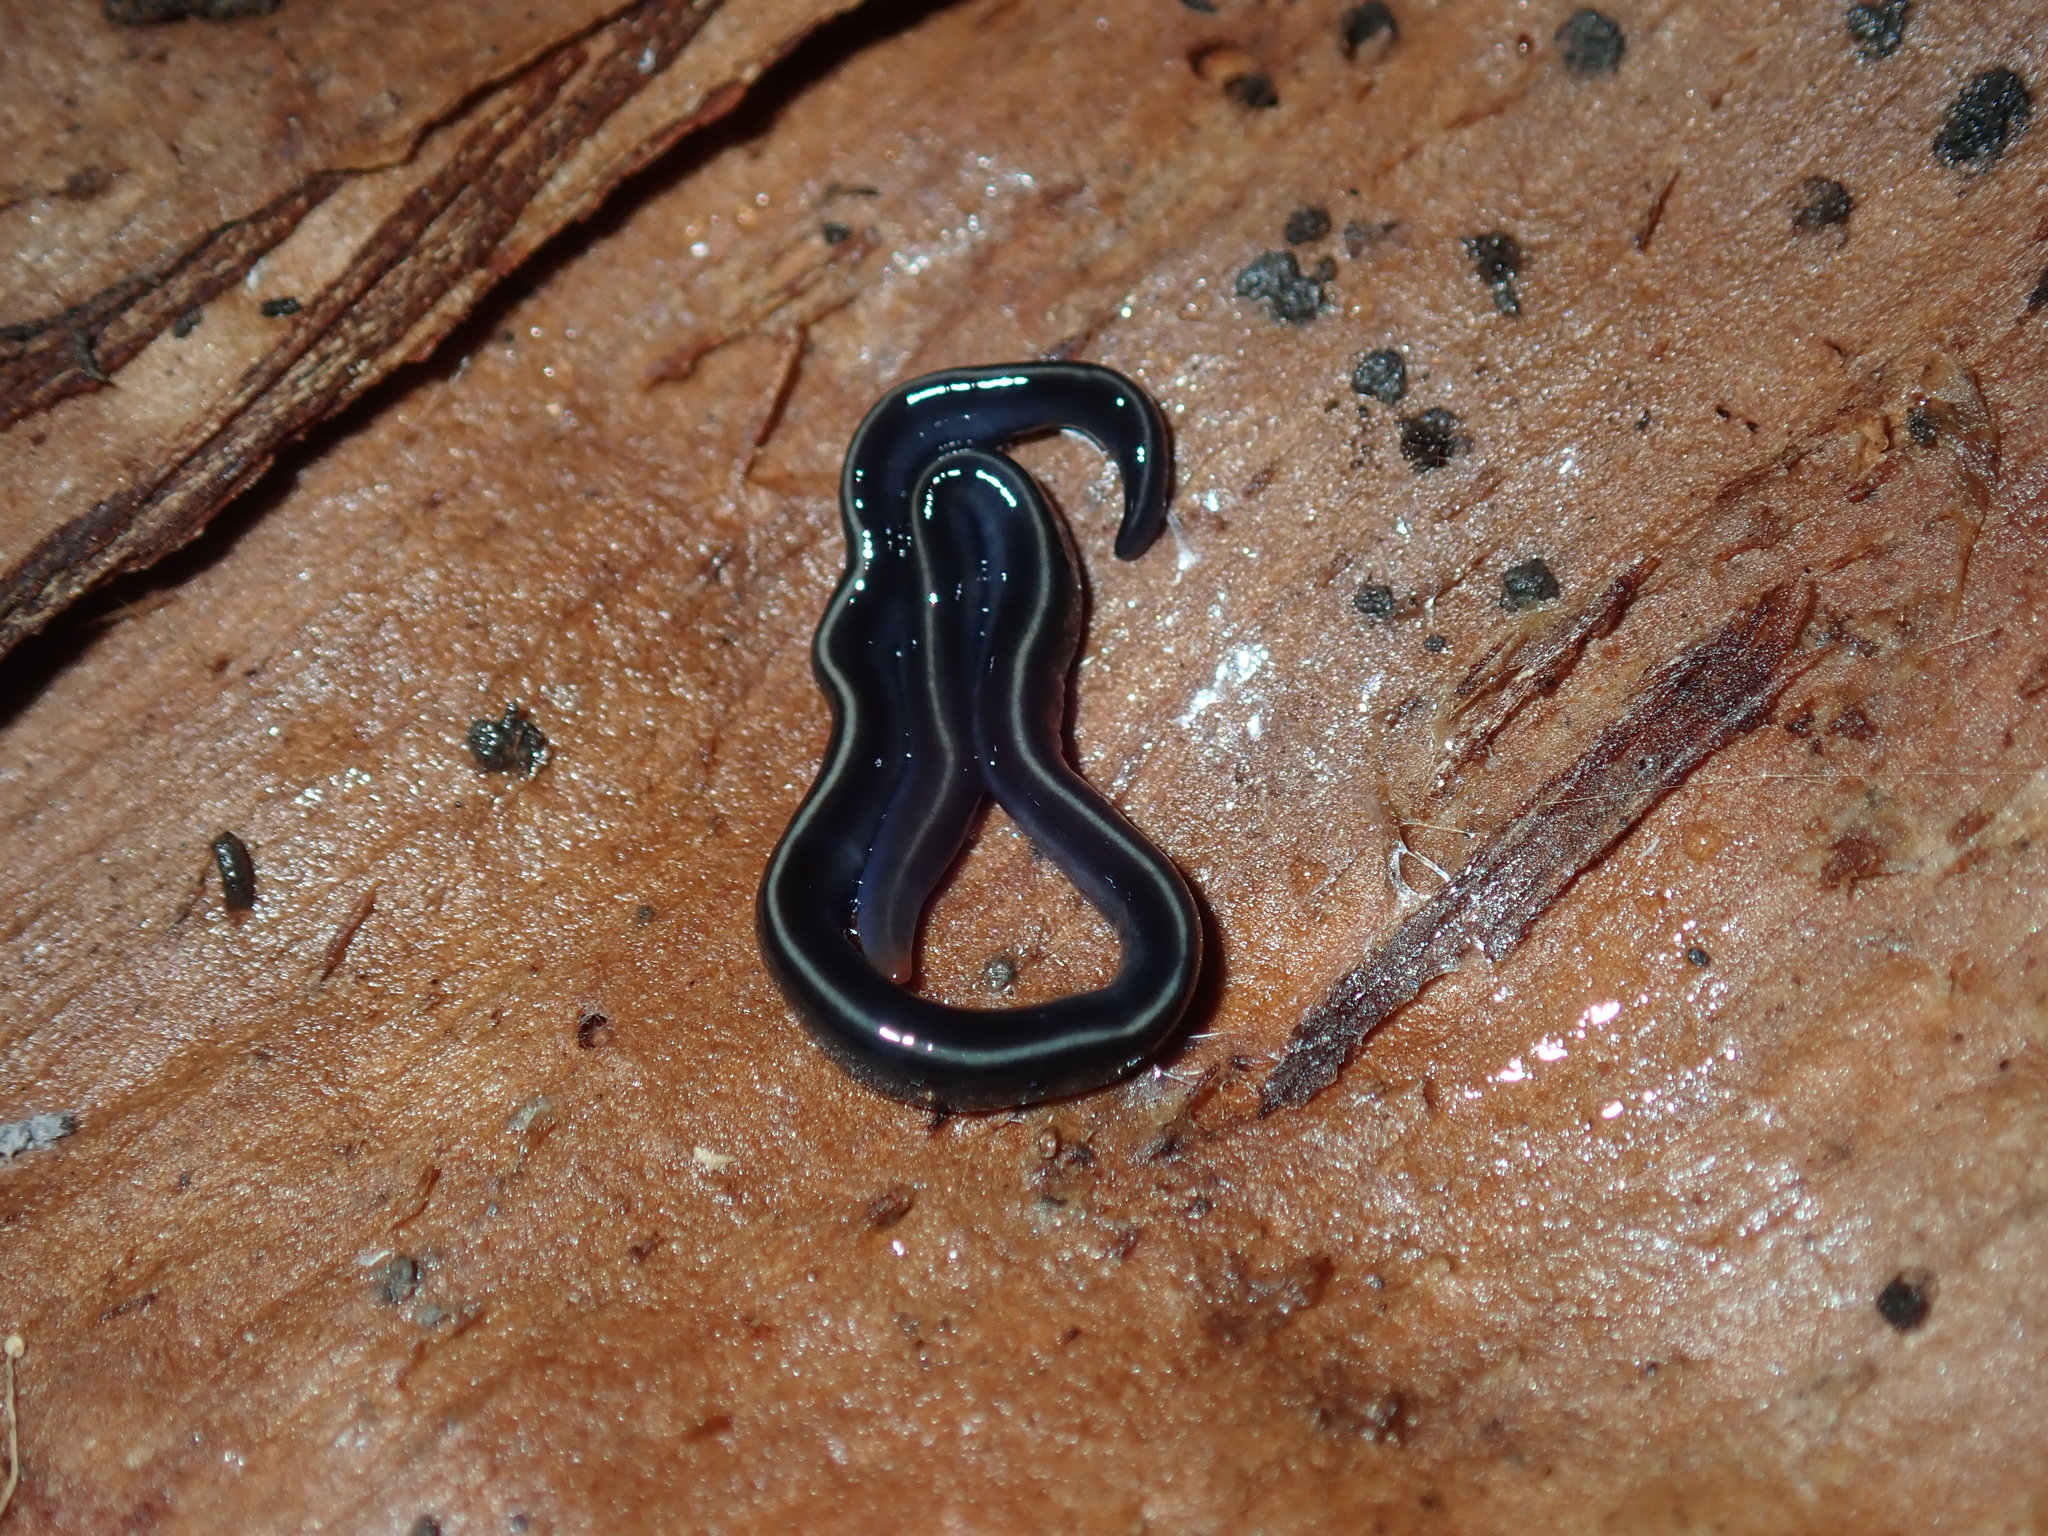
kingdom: Animalia
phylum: Platyhelminthes
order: Tricladida
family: Geoplanidae
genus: Caenoplana
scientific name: Caenoplana coerulea
